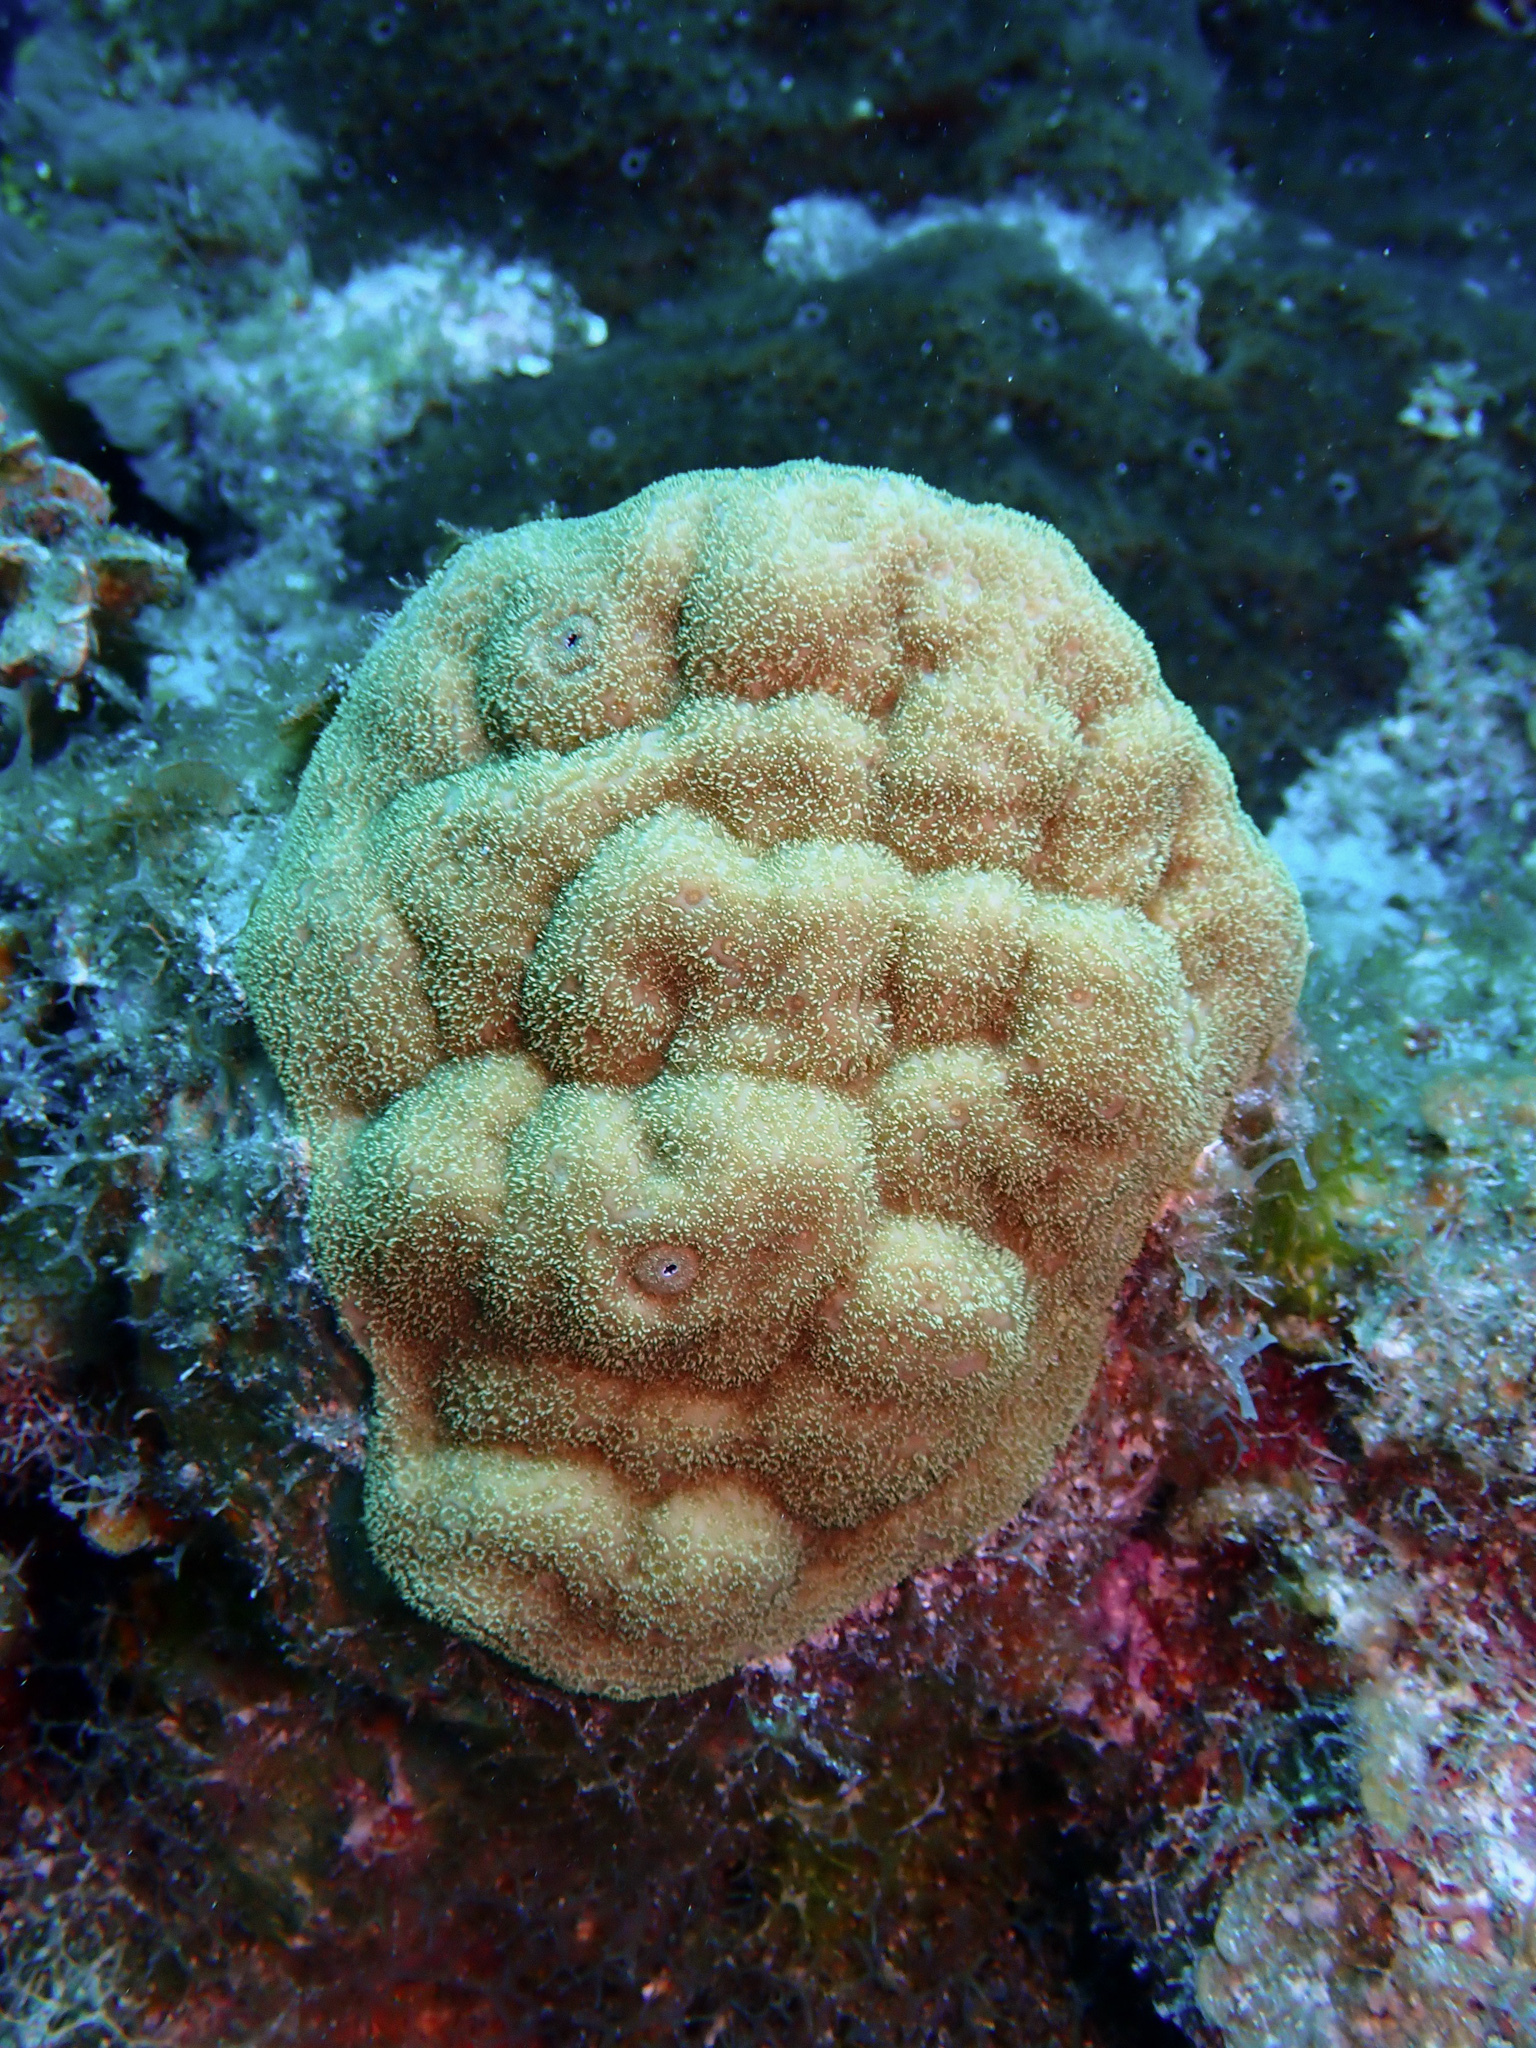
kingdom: Animalia
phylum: Cnidaria
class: Anthozoa
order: Scleractinia
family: Poritidae
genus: Porites
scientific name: Porites astreoides
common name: Mustard hill coral
